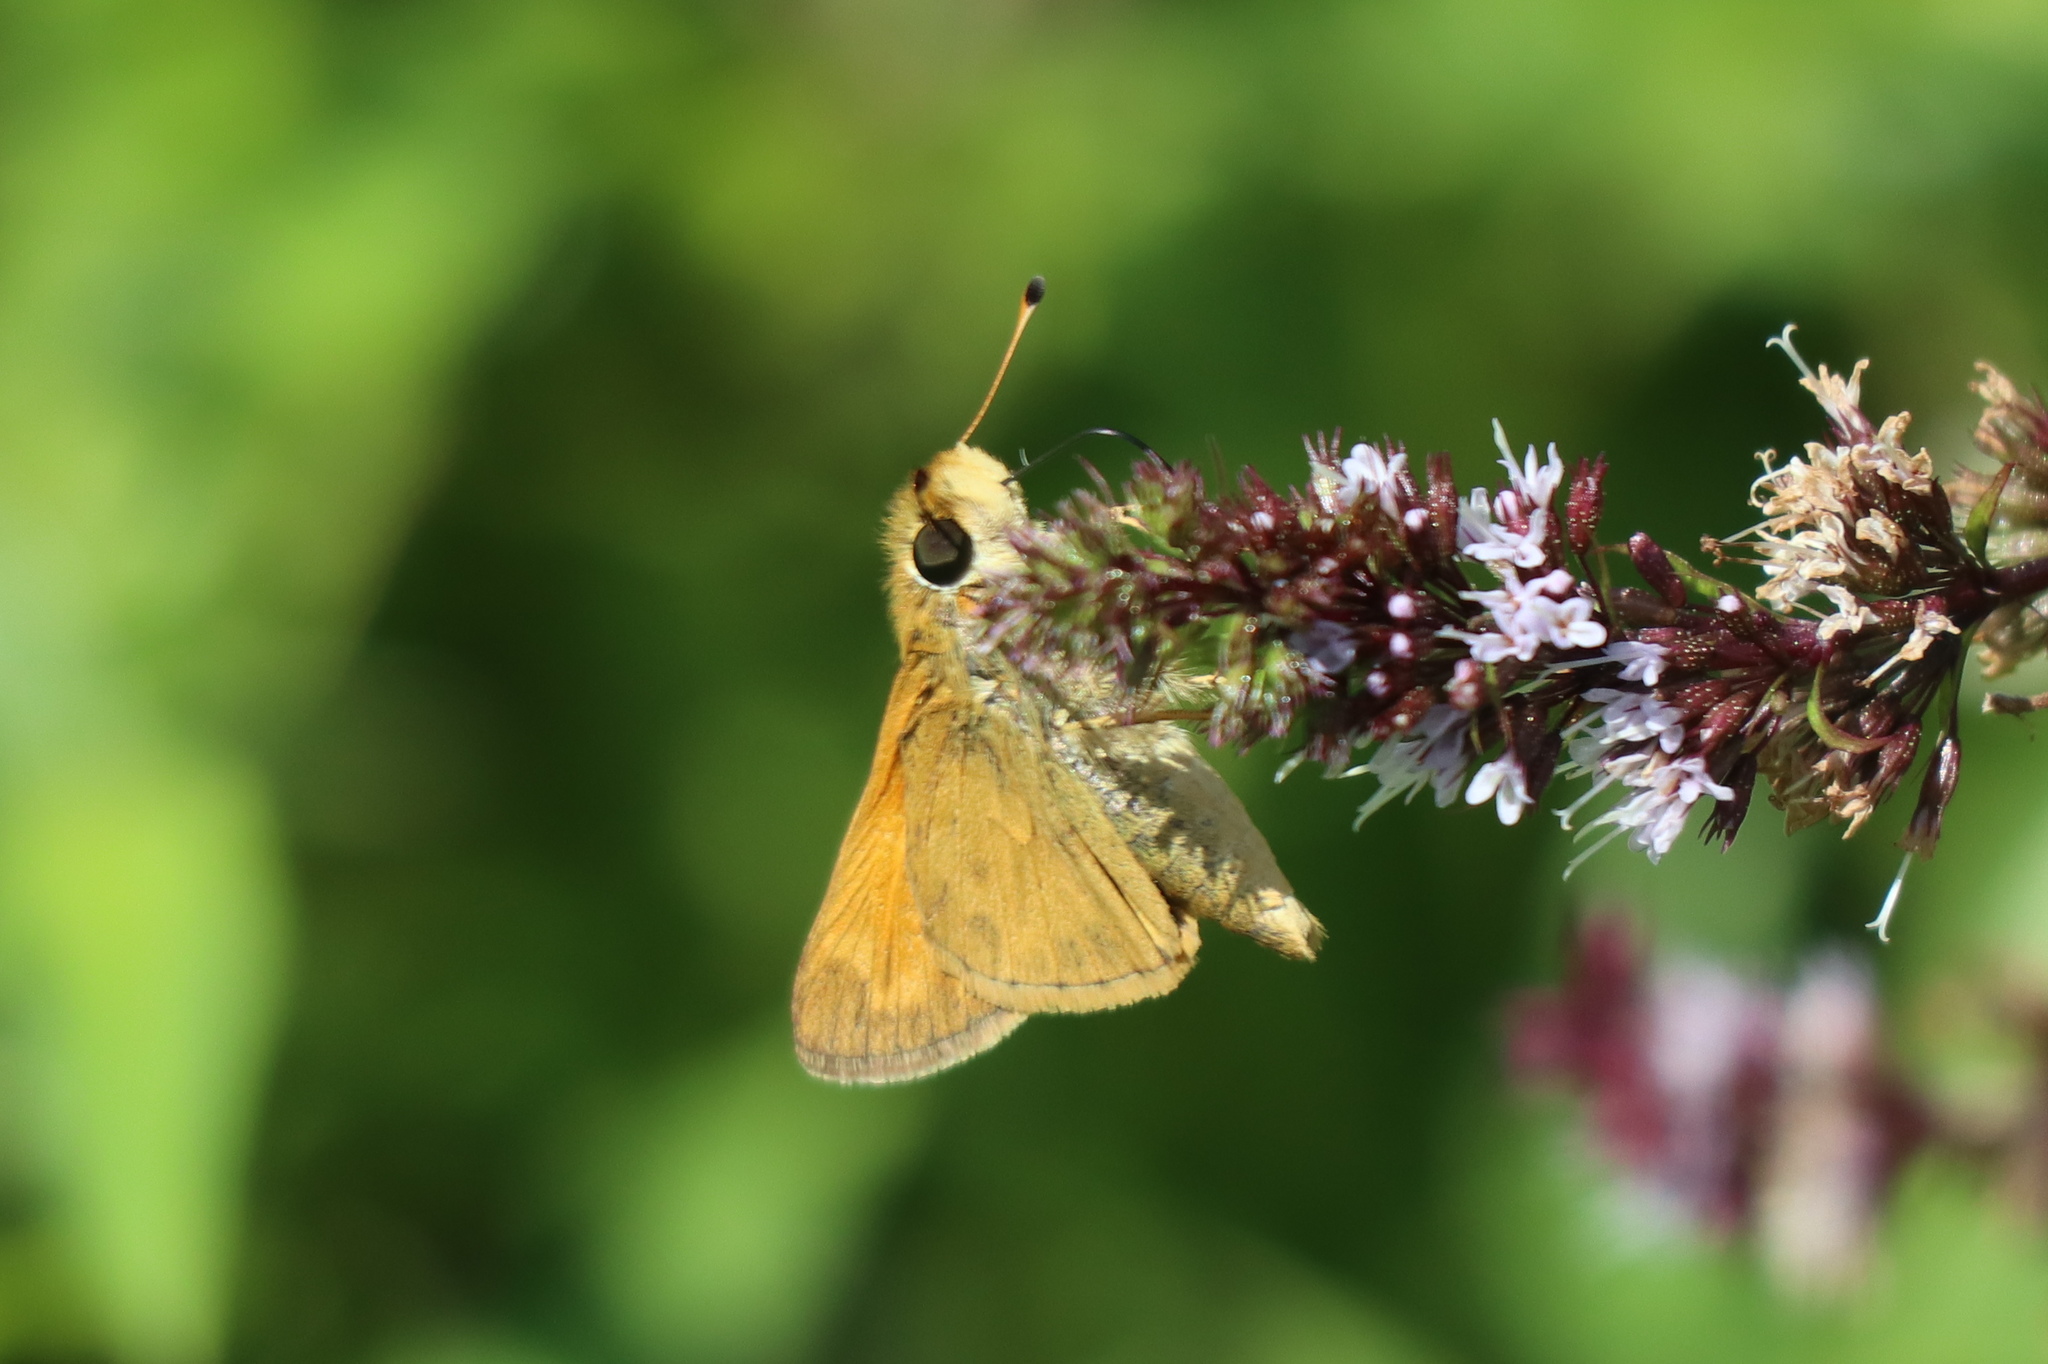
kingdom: Animalia
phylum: Arthropoda
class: Insecta
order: Lepidoptera
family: Hesperiidae
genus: Atalopedes
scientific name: Atalopedes
